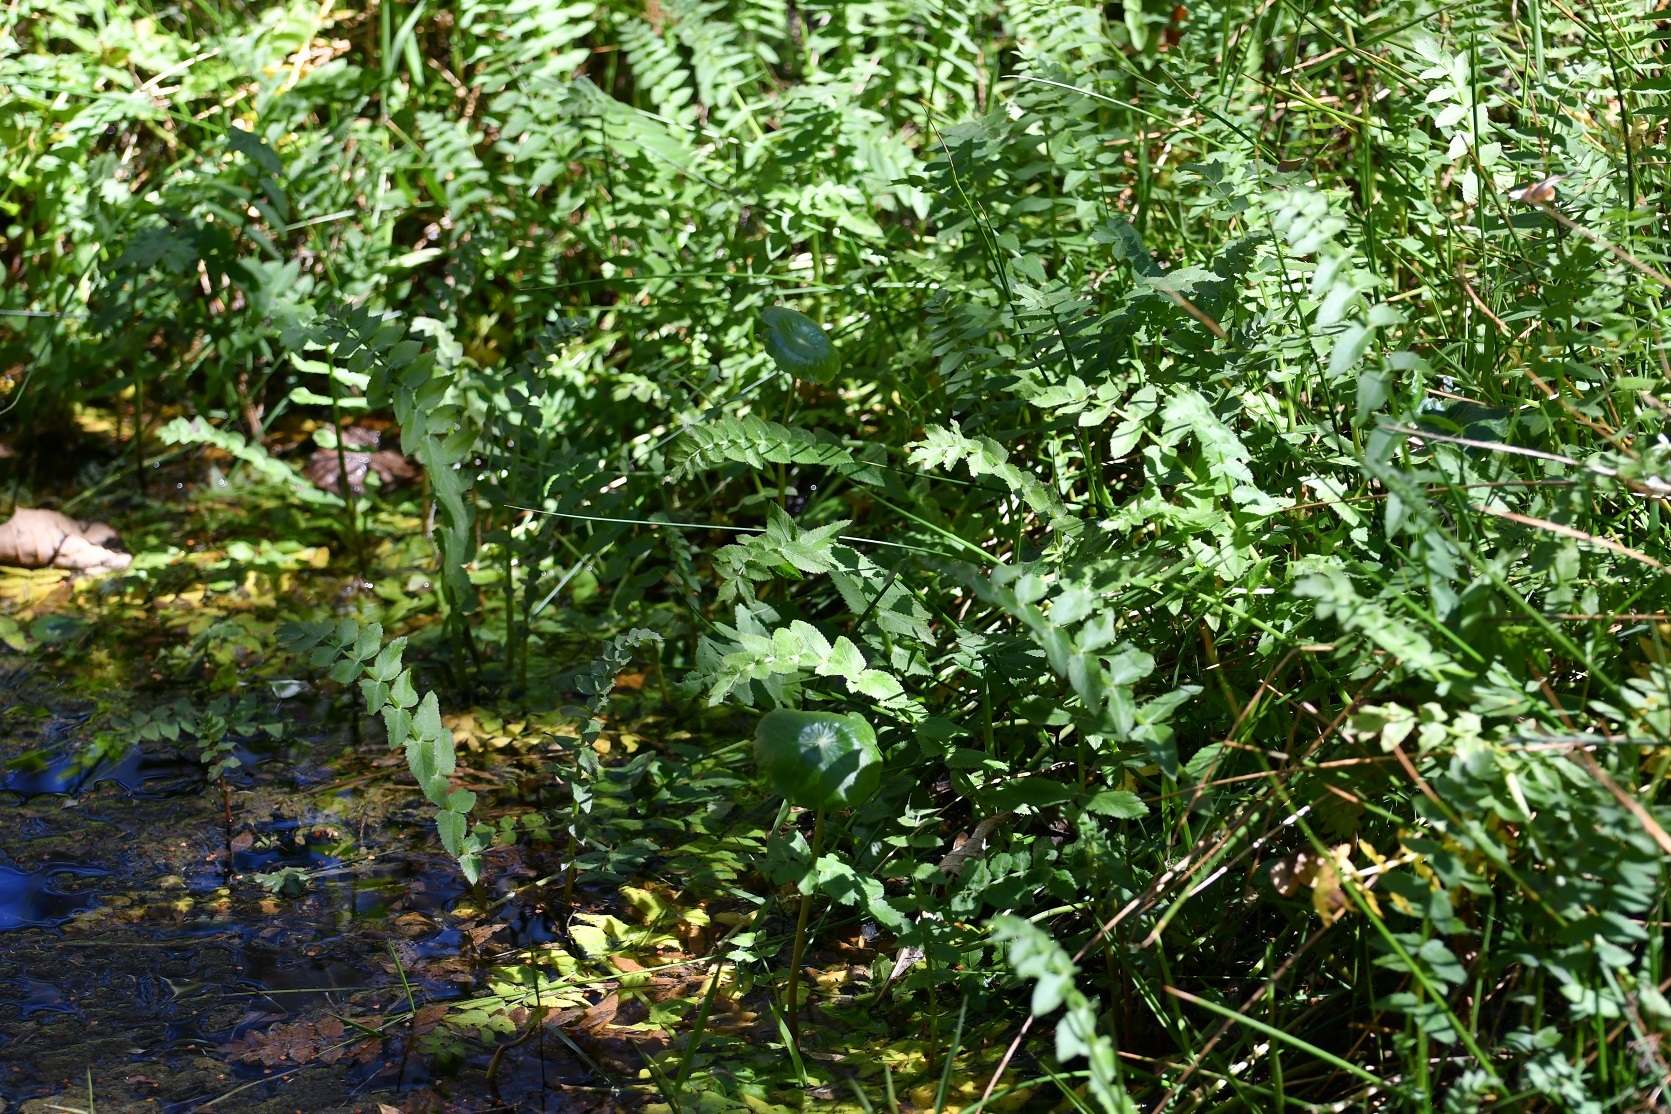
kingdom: Plantae
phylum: Tracheophyta
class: Magnoliopsida
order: Apiales
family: Apiaceae
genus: Berula
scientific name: Berula erecta
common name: Lesser water-parsnip
